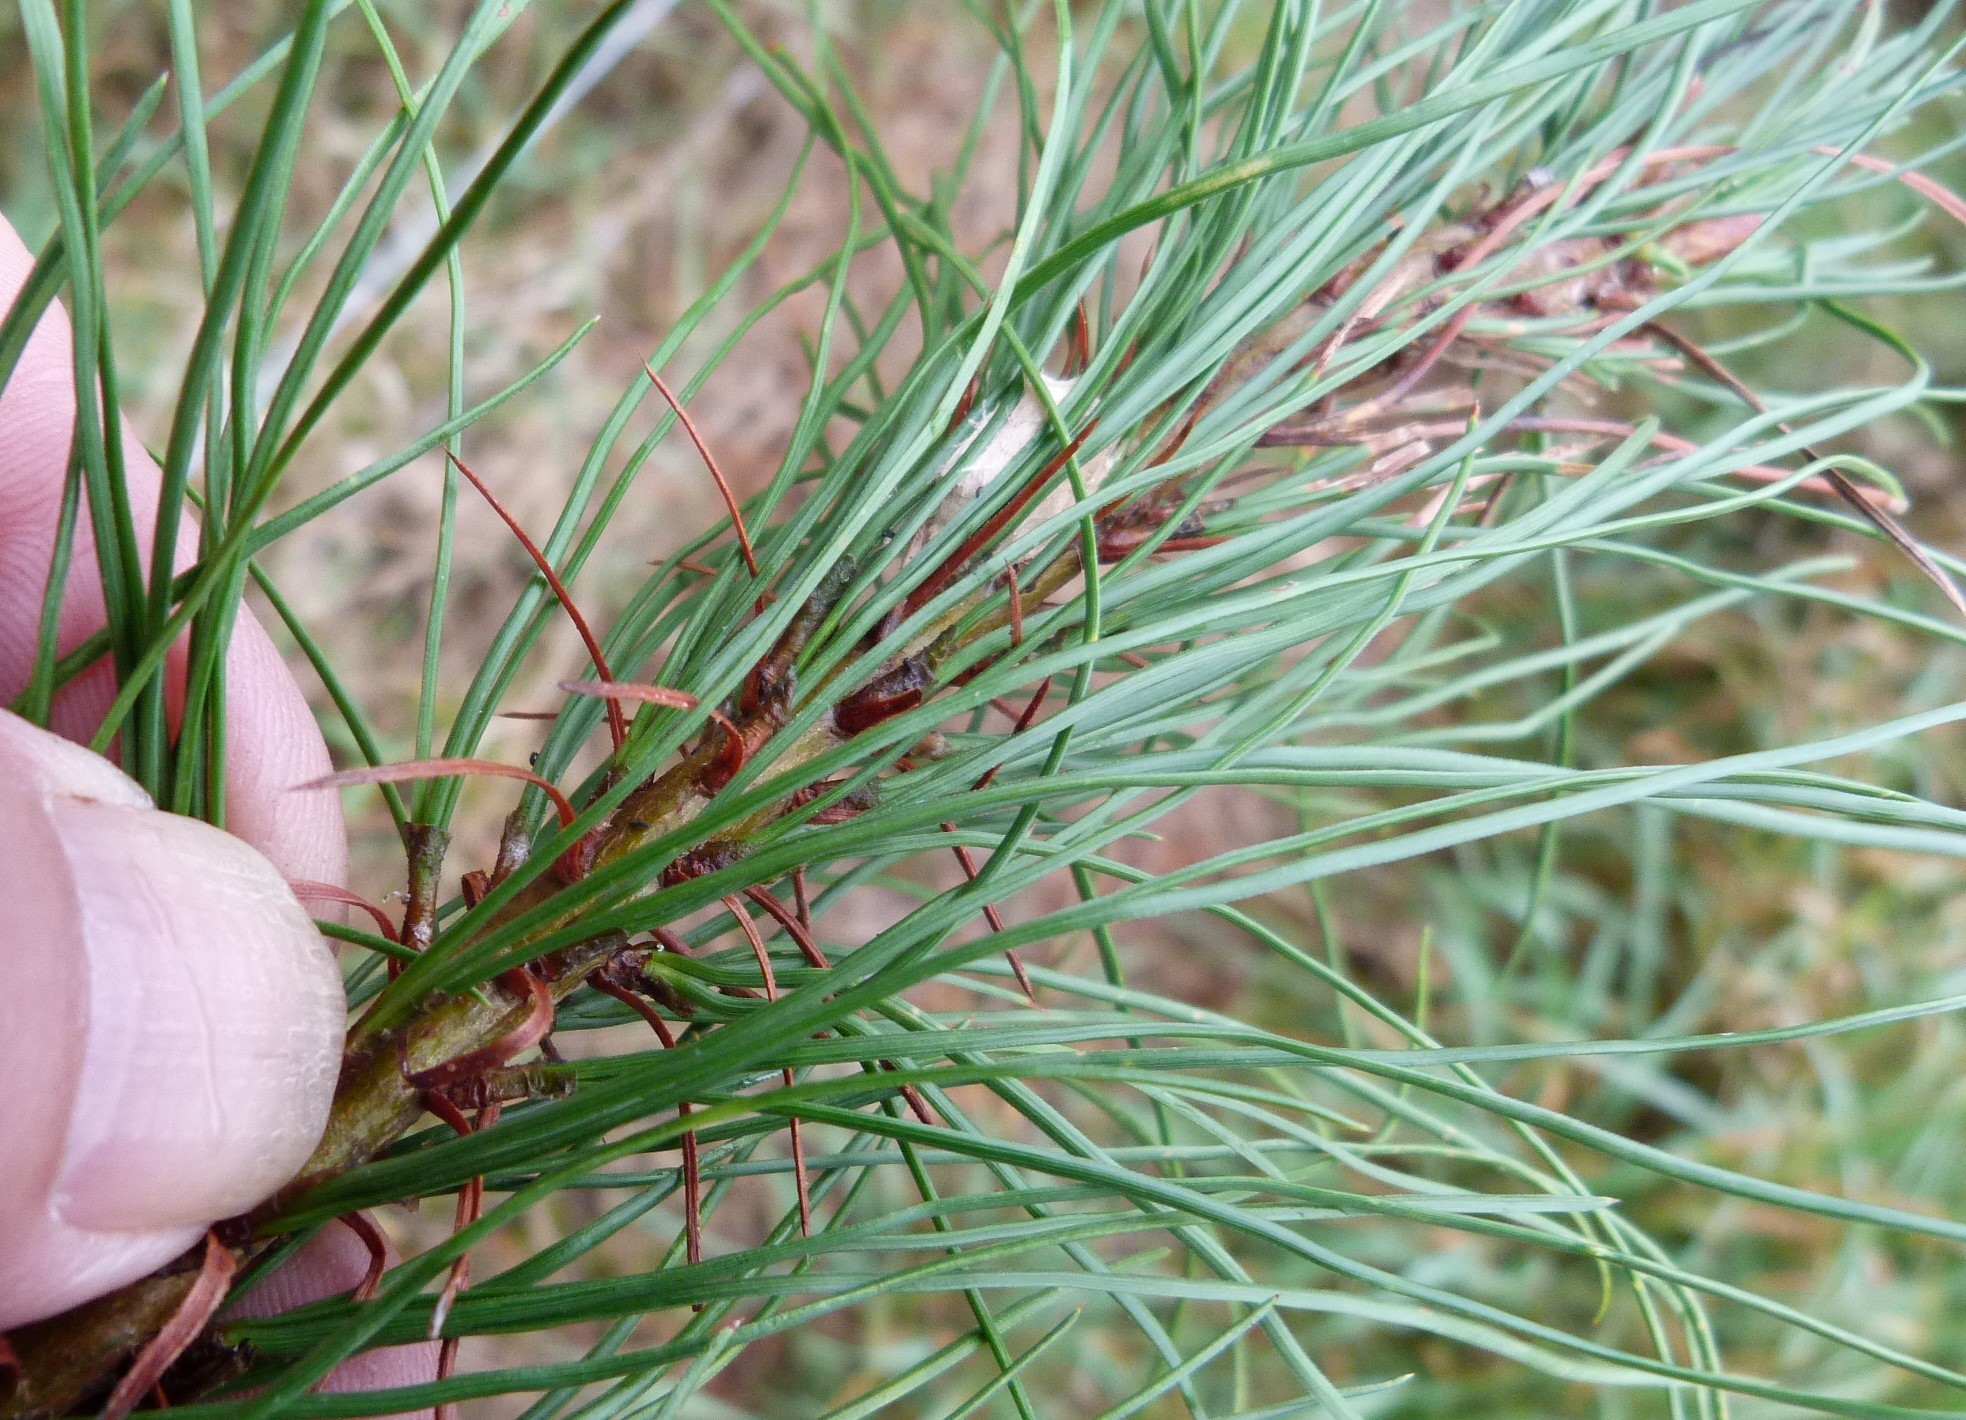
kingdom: Plantae
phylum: Tracheophyta
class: Pinopsida
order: Pinales
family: Pinaceae
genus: Pinus
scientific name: Pinus radiata
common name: Monterey pine
